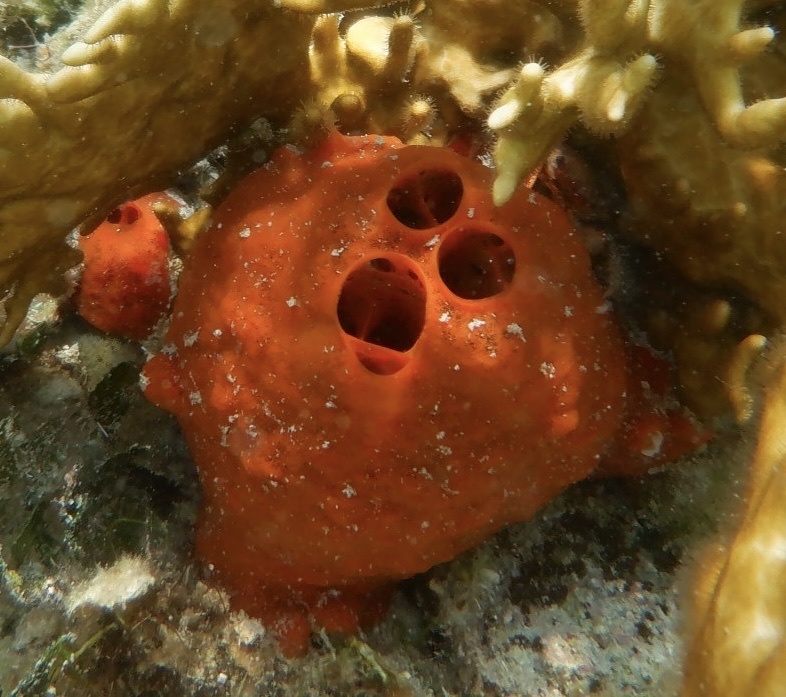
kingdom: Animalia
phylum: Porifera
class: Demospongiae
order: Poecilosclerida
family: Tedaniidae
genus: Tedania
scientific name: Tedania ignis
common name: Sponge
